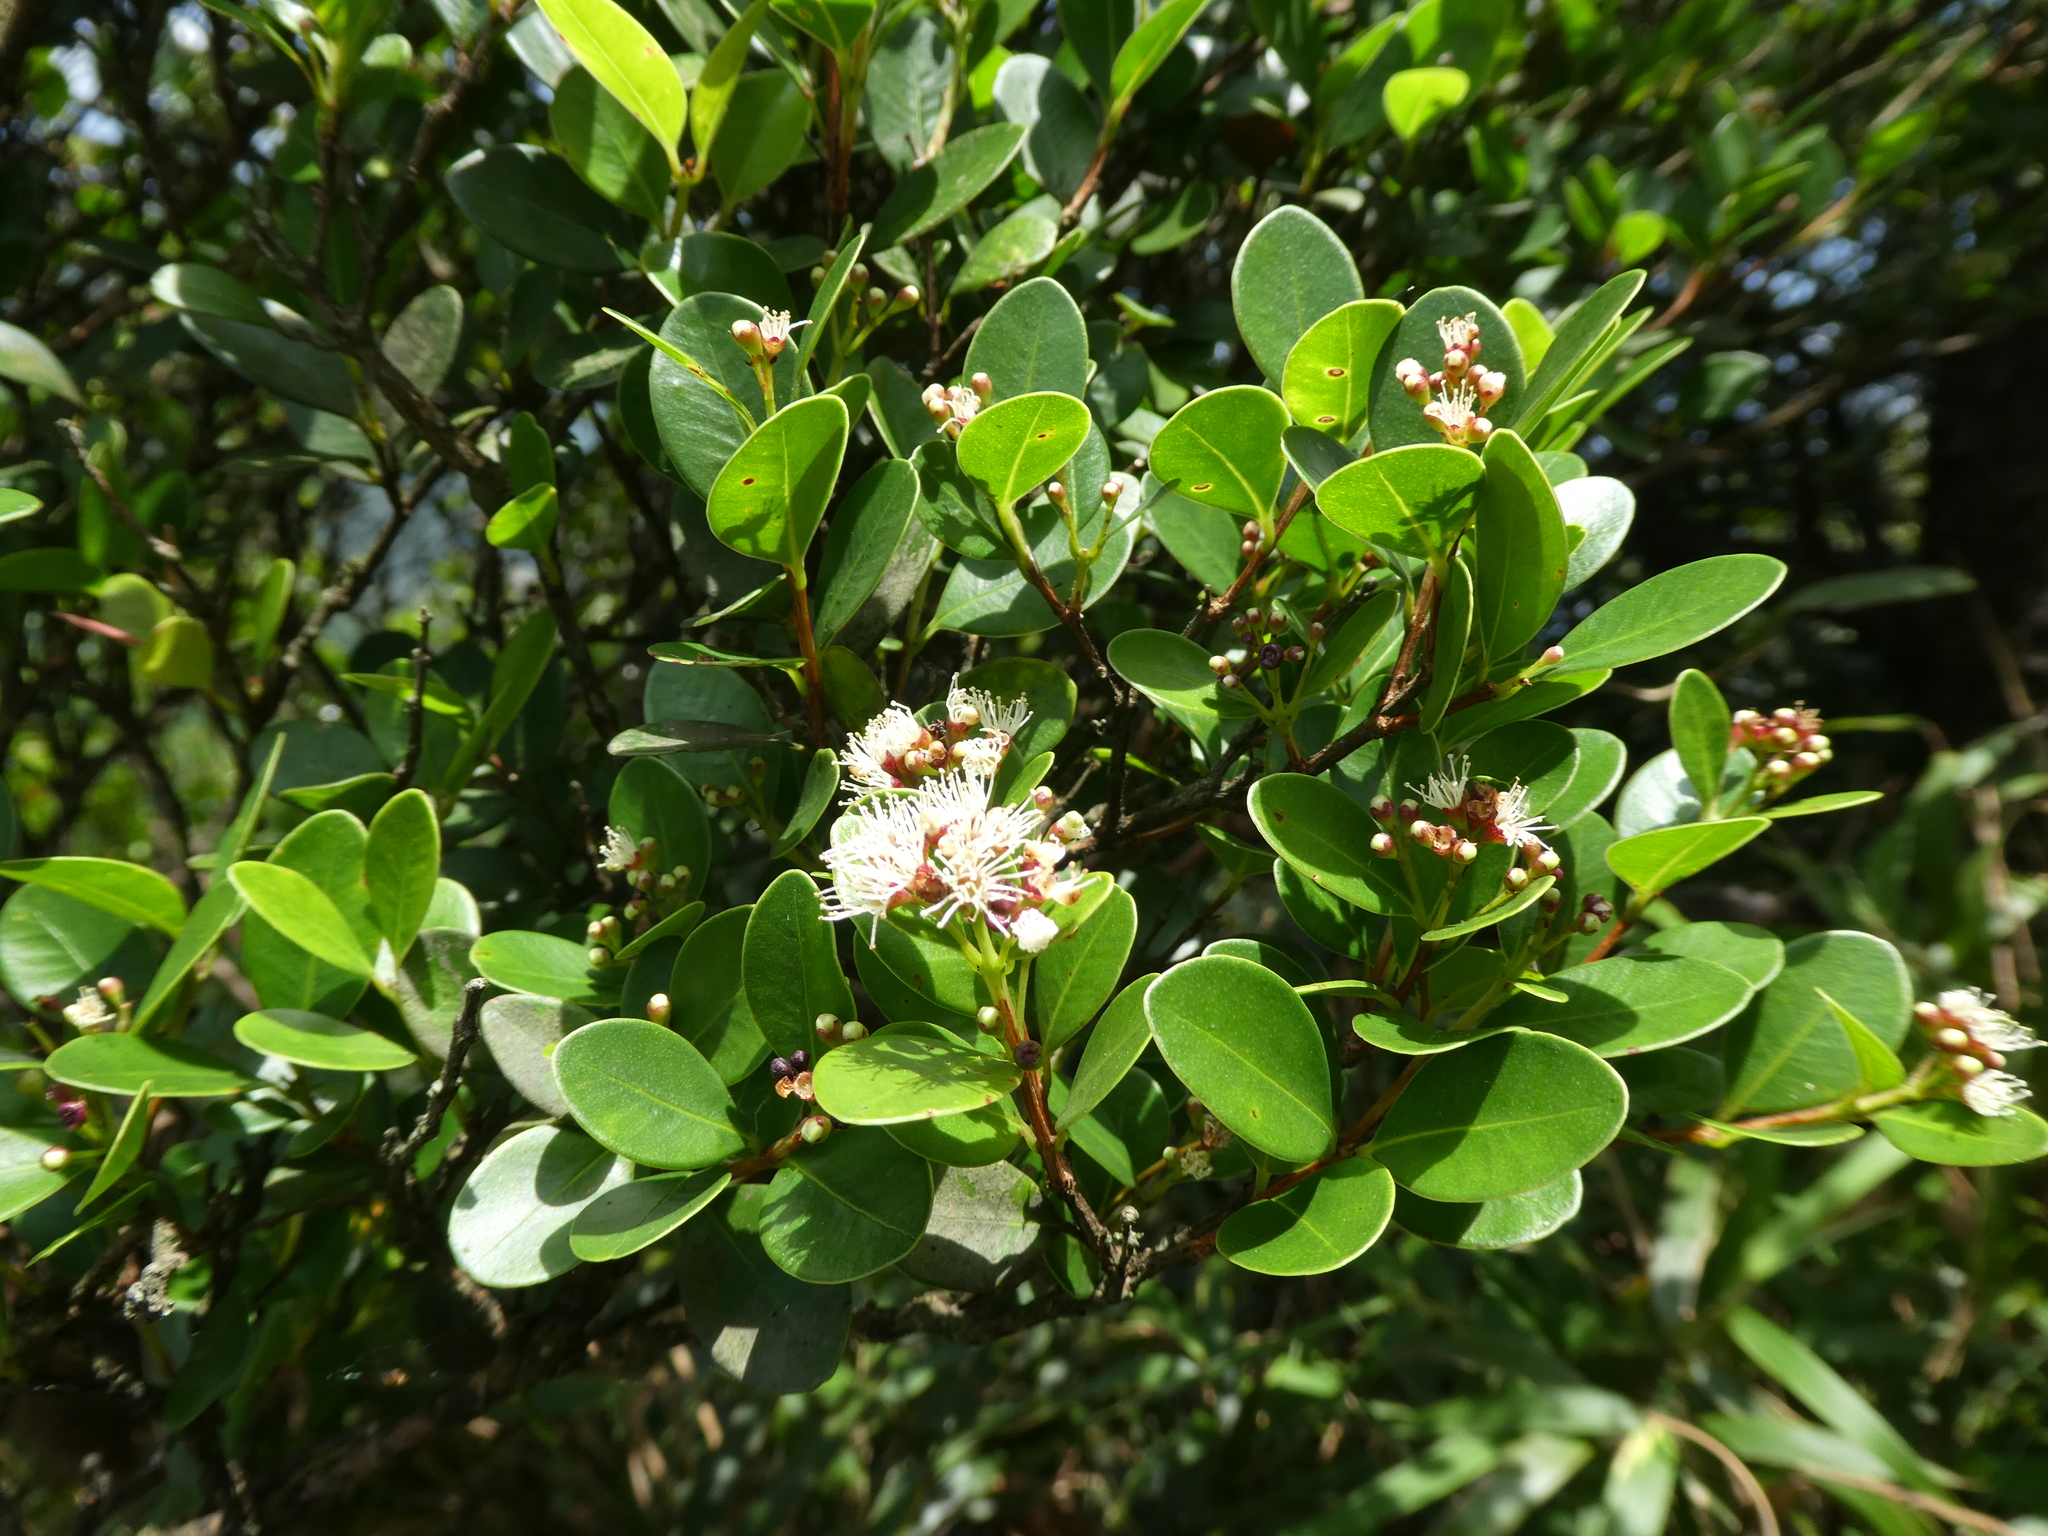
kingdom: Plantae
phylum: Tracheophyta
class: Magnoliopsida
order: Myrtales
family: Myrtaceae
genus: Syzygium
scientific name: Syzygium buxifolium
